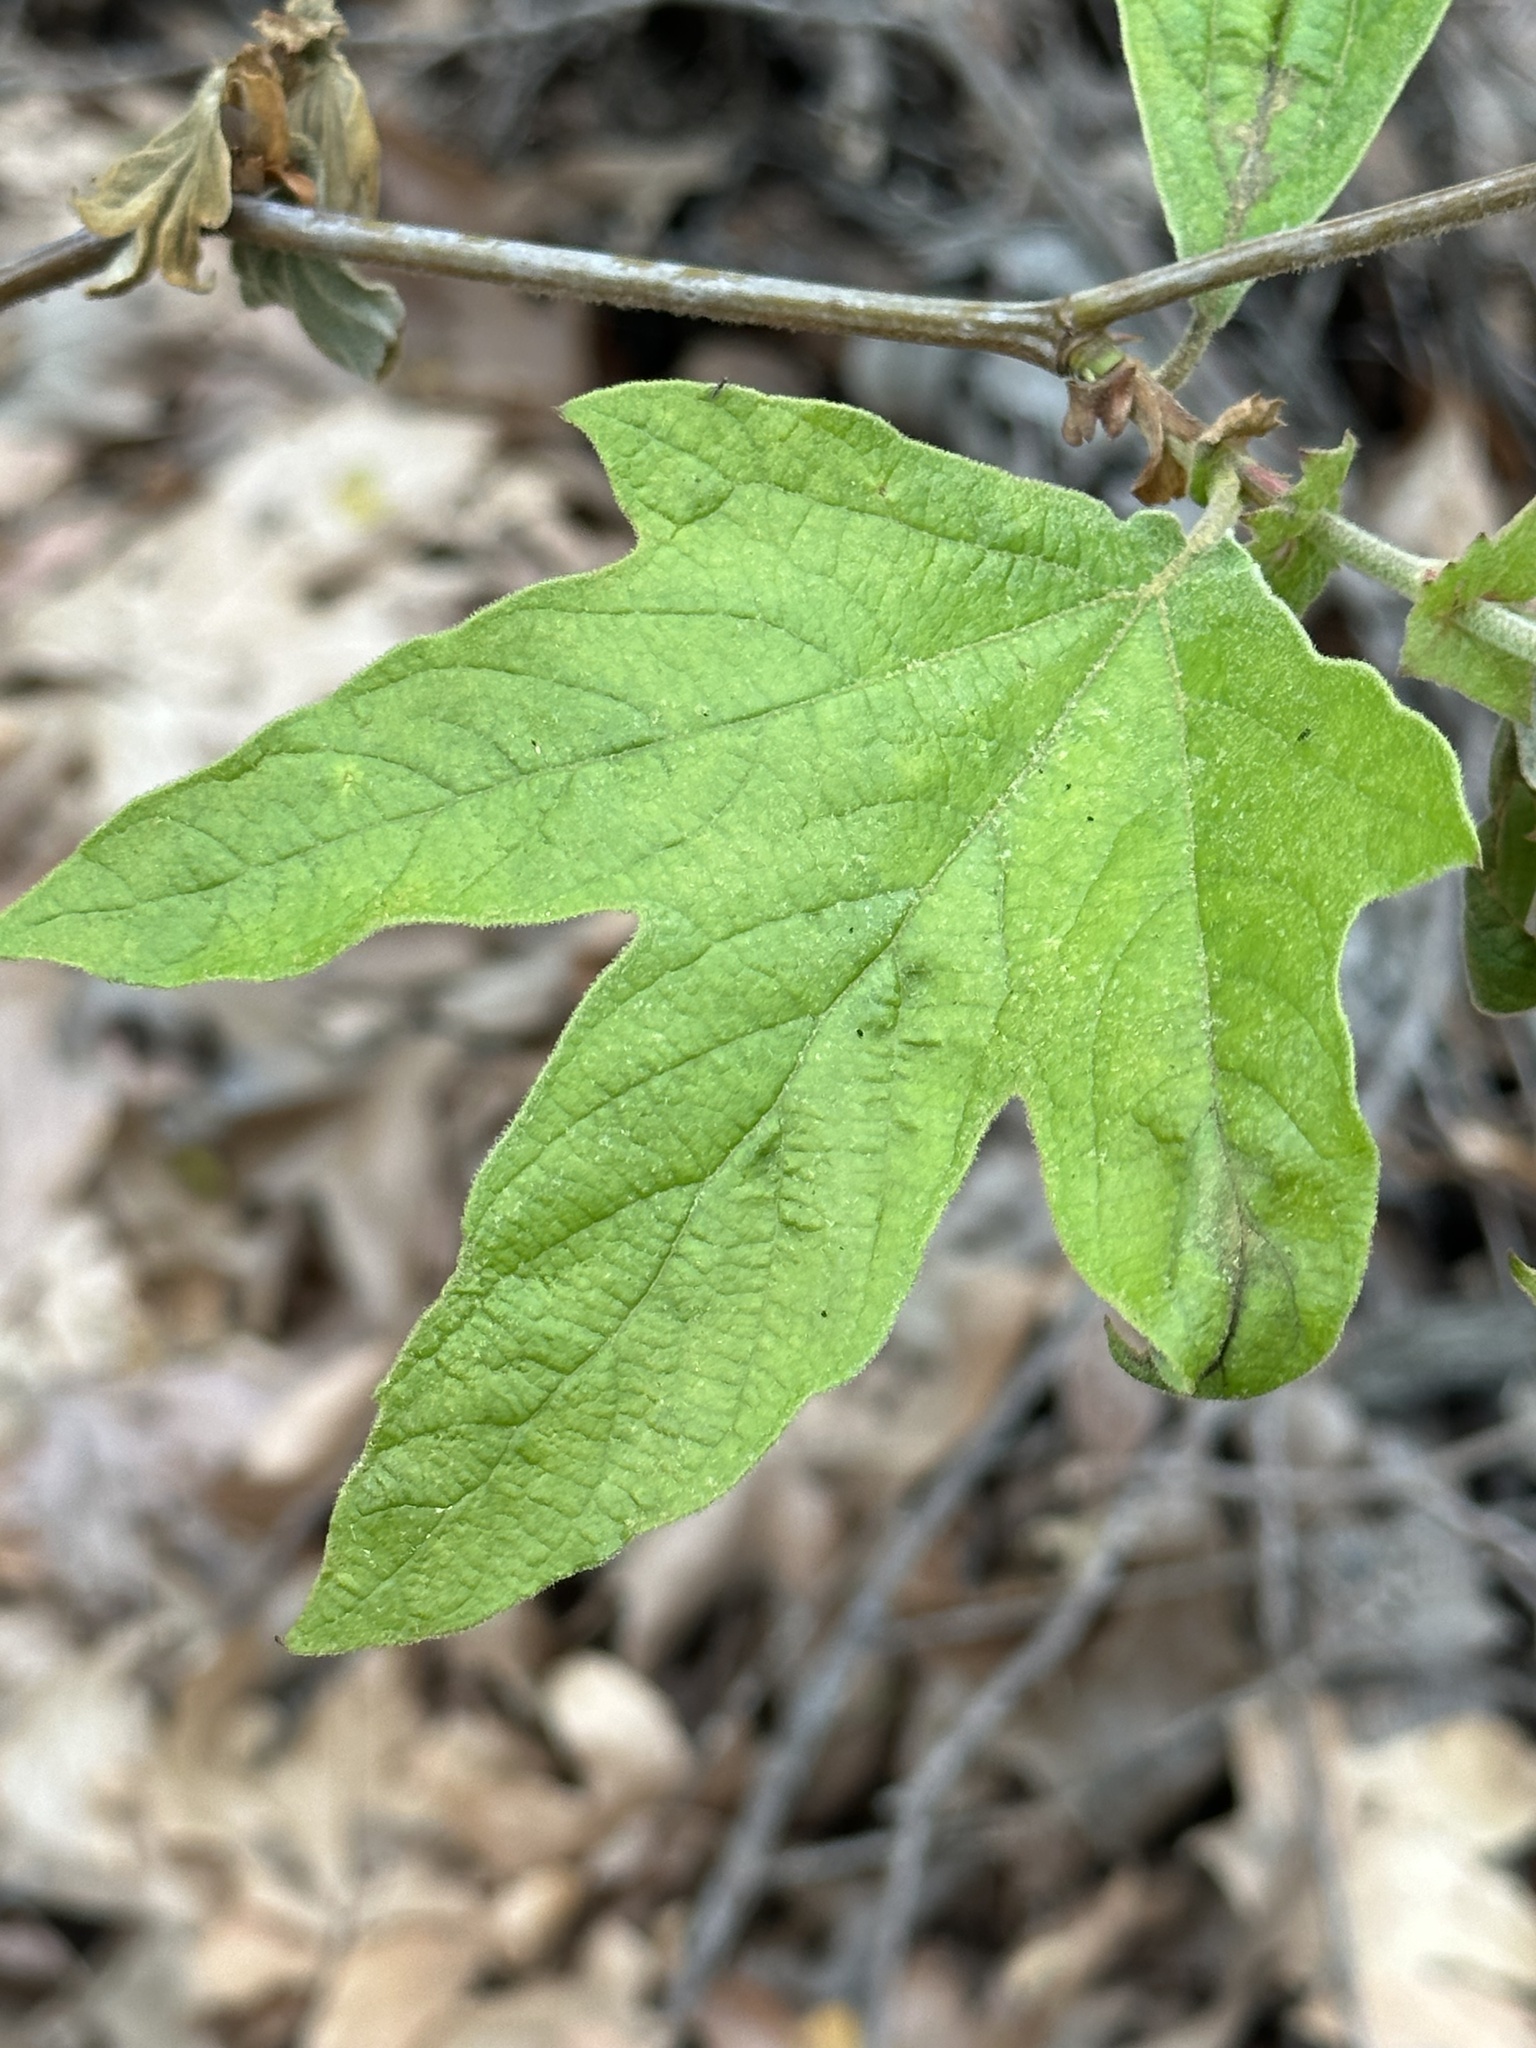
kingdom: Plantae
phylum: Tracheophyta
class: Magnoliopsida
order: Proteales
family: Platanaceae
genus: Platanus
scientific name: Platanus racemosa
